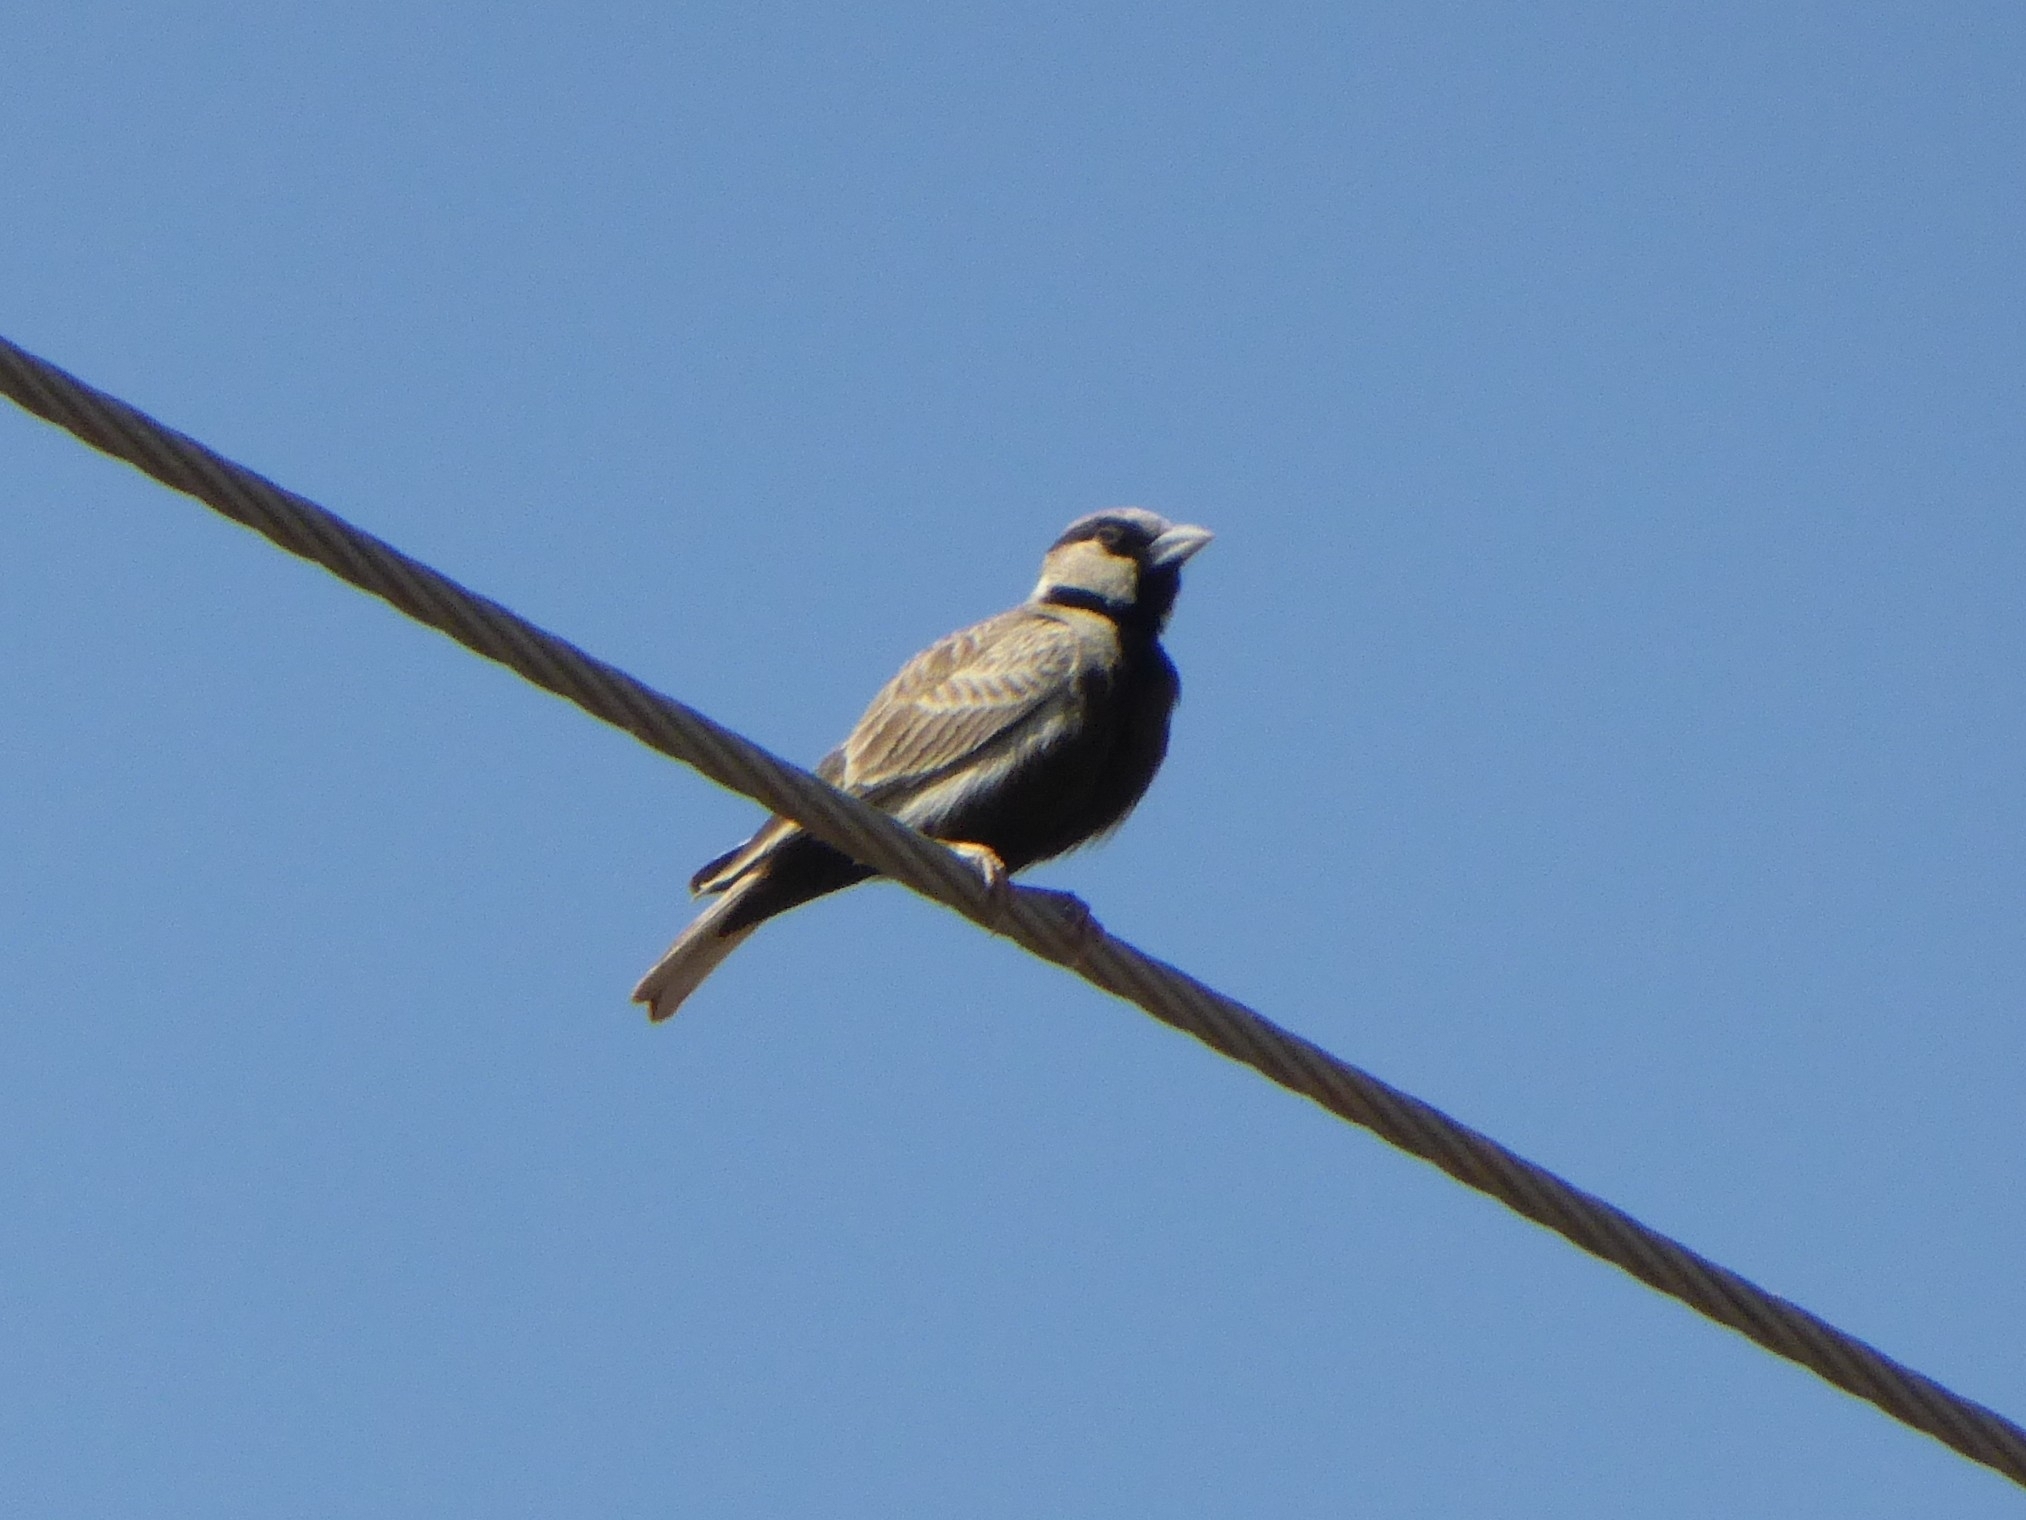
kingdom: Animalia
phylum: Chordata
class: Aves
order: Passeriformes
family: Alaudidae
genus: Eremopterix
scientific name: Eremopterix griseus
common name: Ashy-crowned sparrow-lark
